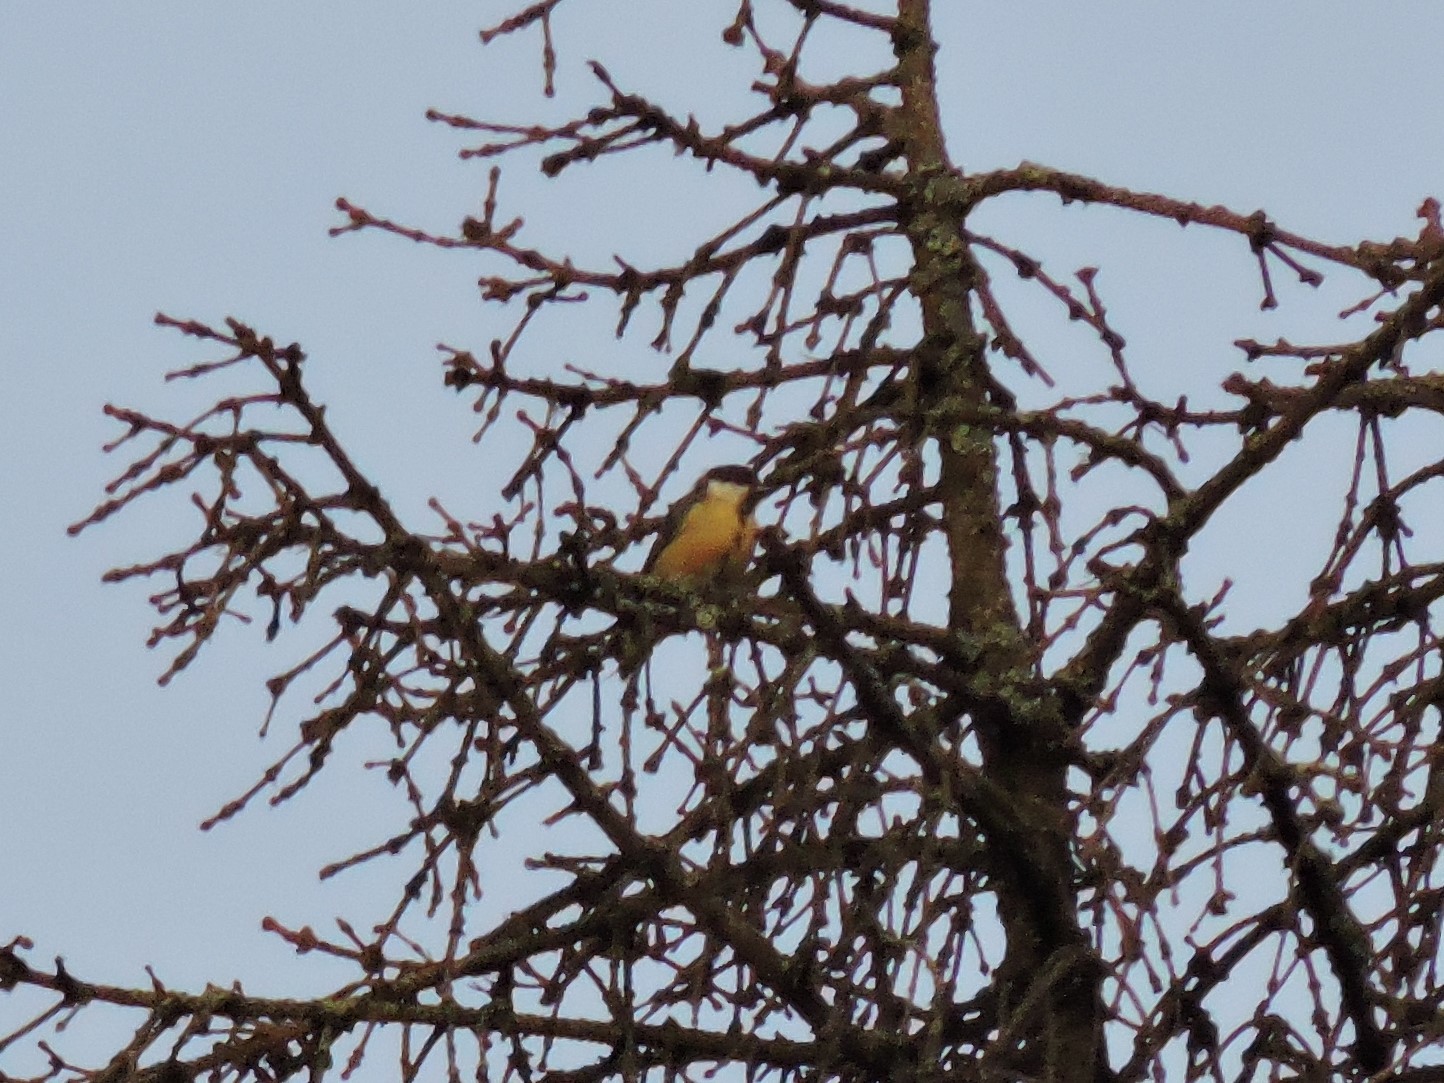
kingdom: Animalia
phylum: Chordata
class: Aves
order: Passeriformes
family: Paridae
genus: Parus
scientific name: Parus major
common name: Great tit
